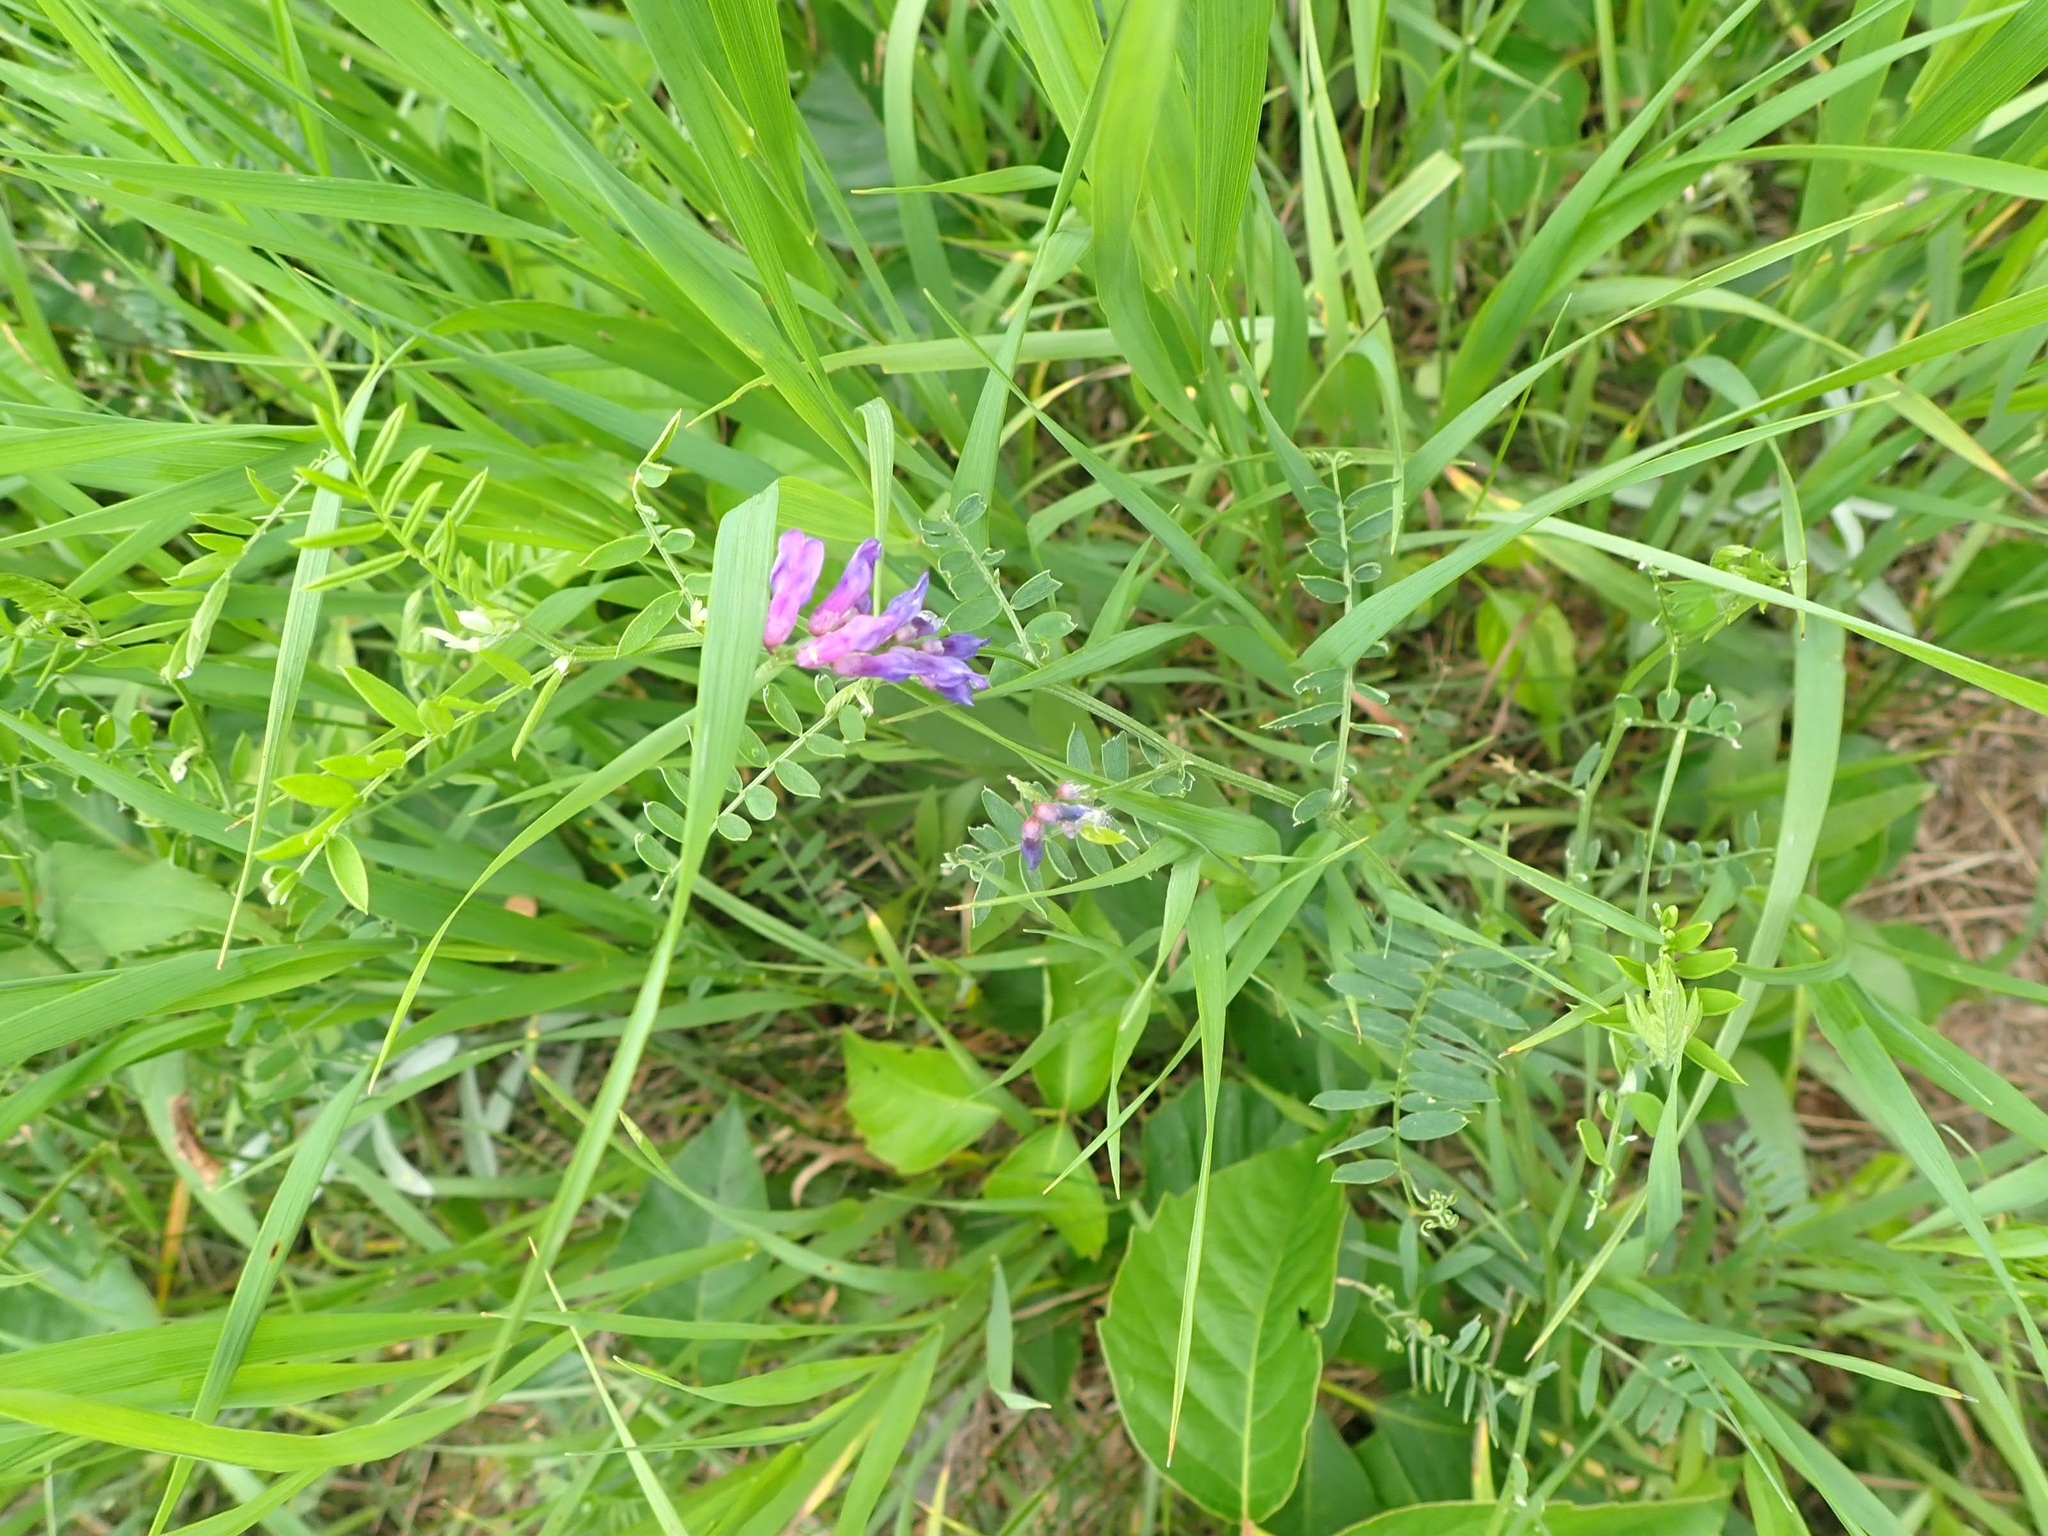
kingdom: Plantae
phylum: Tracheophyta
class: Magnoliopsida
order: Fabales
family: Fabaceae
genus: Vicia
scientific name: Vicia americana
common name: American vetch
